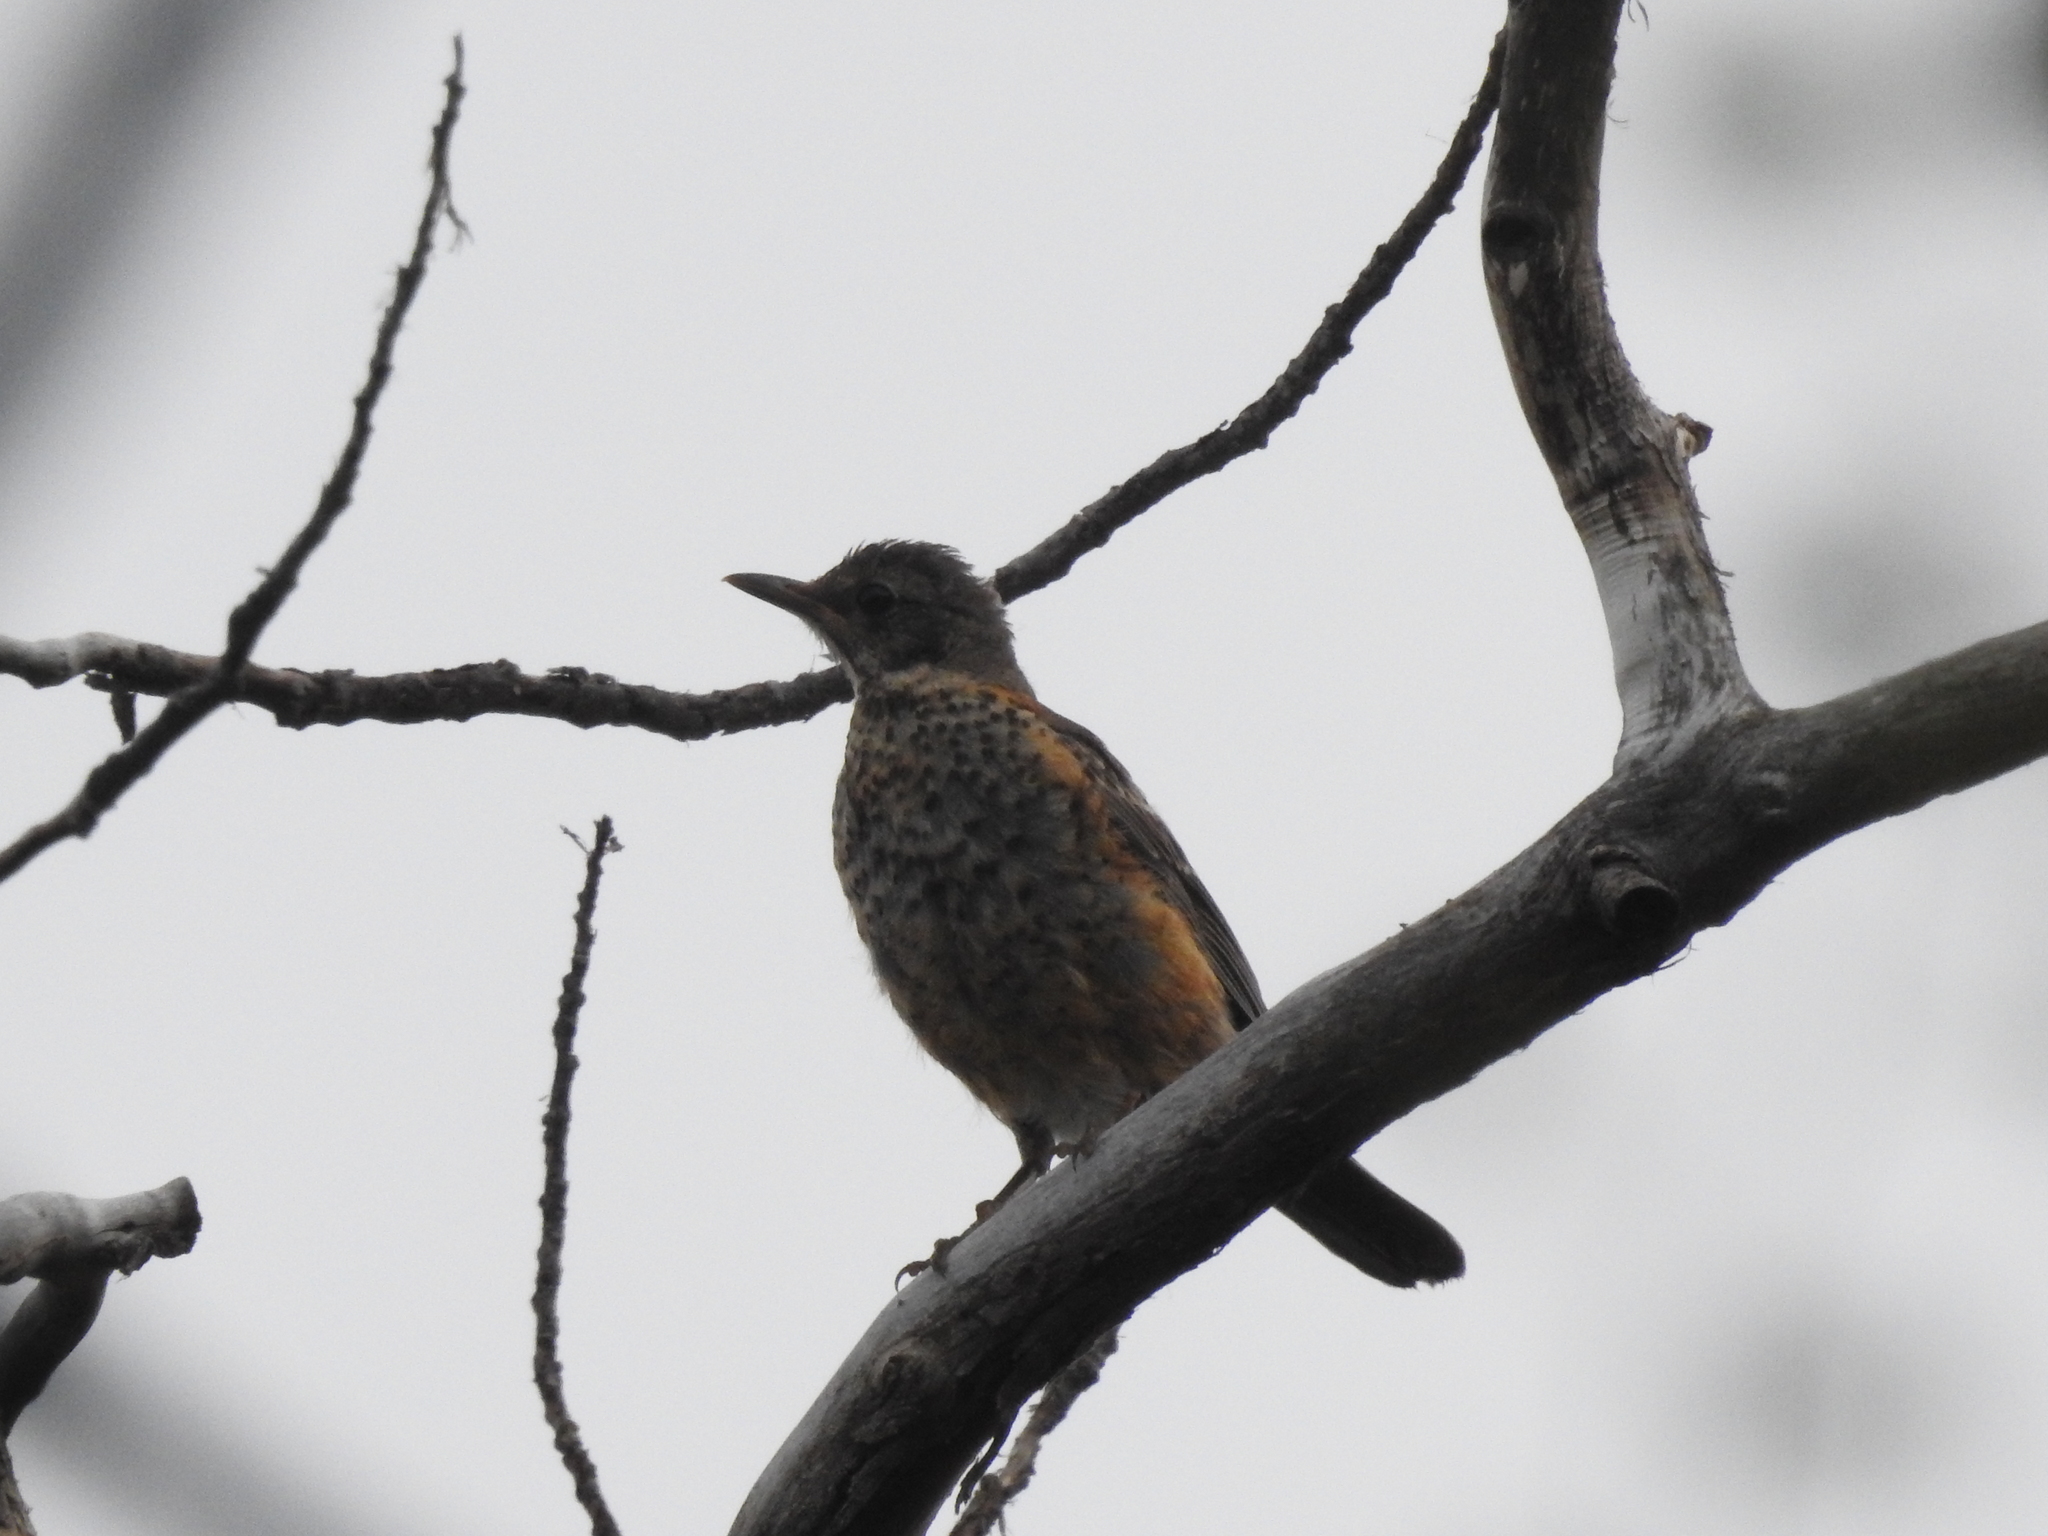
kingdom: Animalia
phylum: Chordata
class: Aves
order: Passeriformes
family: Turdidae
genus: Turdus
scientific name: Turdus migratorius
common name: American robin
